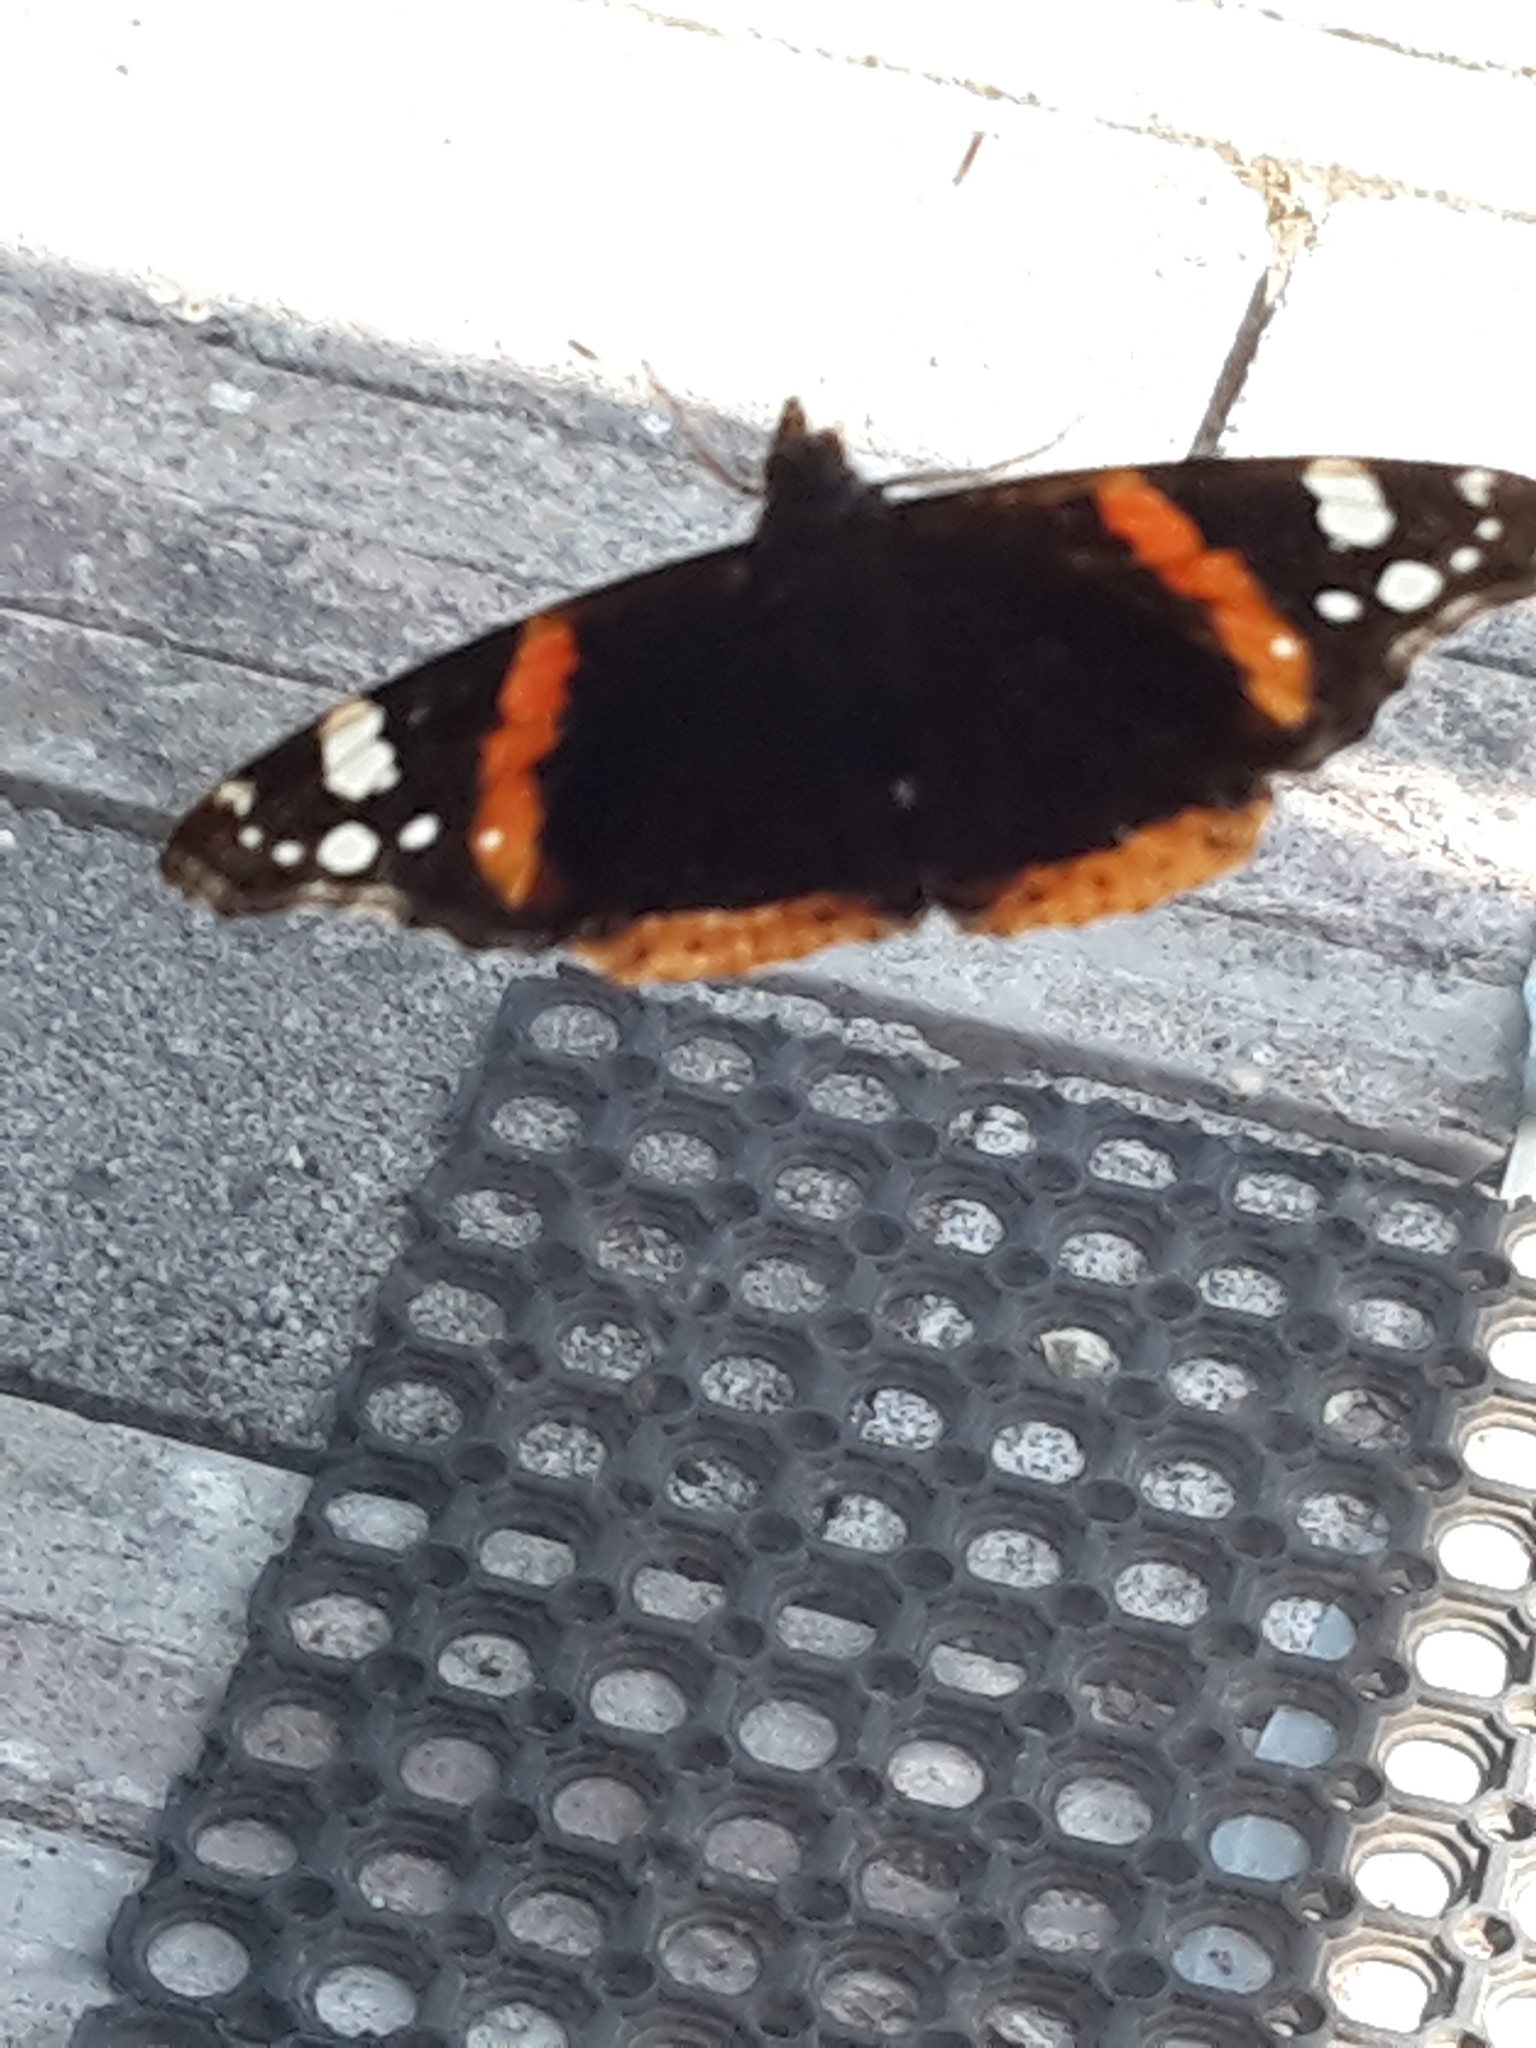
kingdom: Animalia
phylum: Arthropoda
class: Insecta
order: Lepidoptera
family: Nymphalidae
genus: Vanessa
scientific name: Vanessa atalanta
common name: Red admiral
